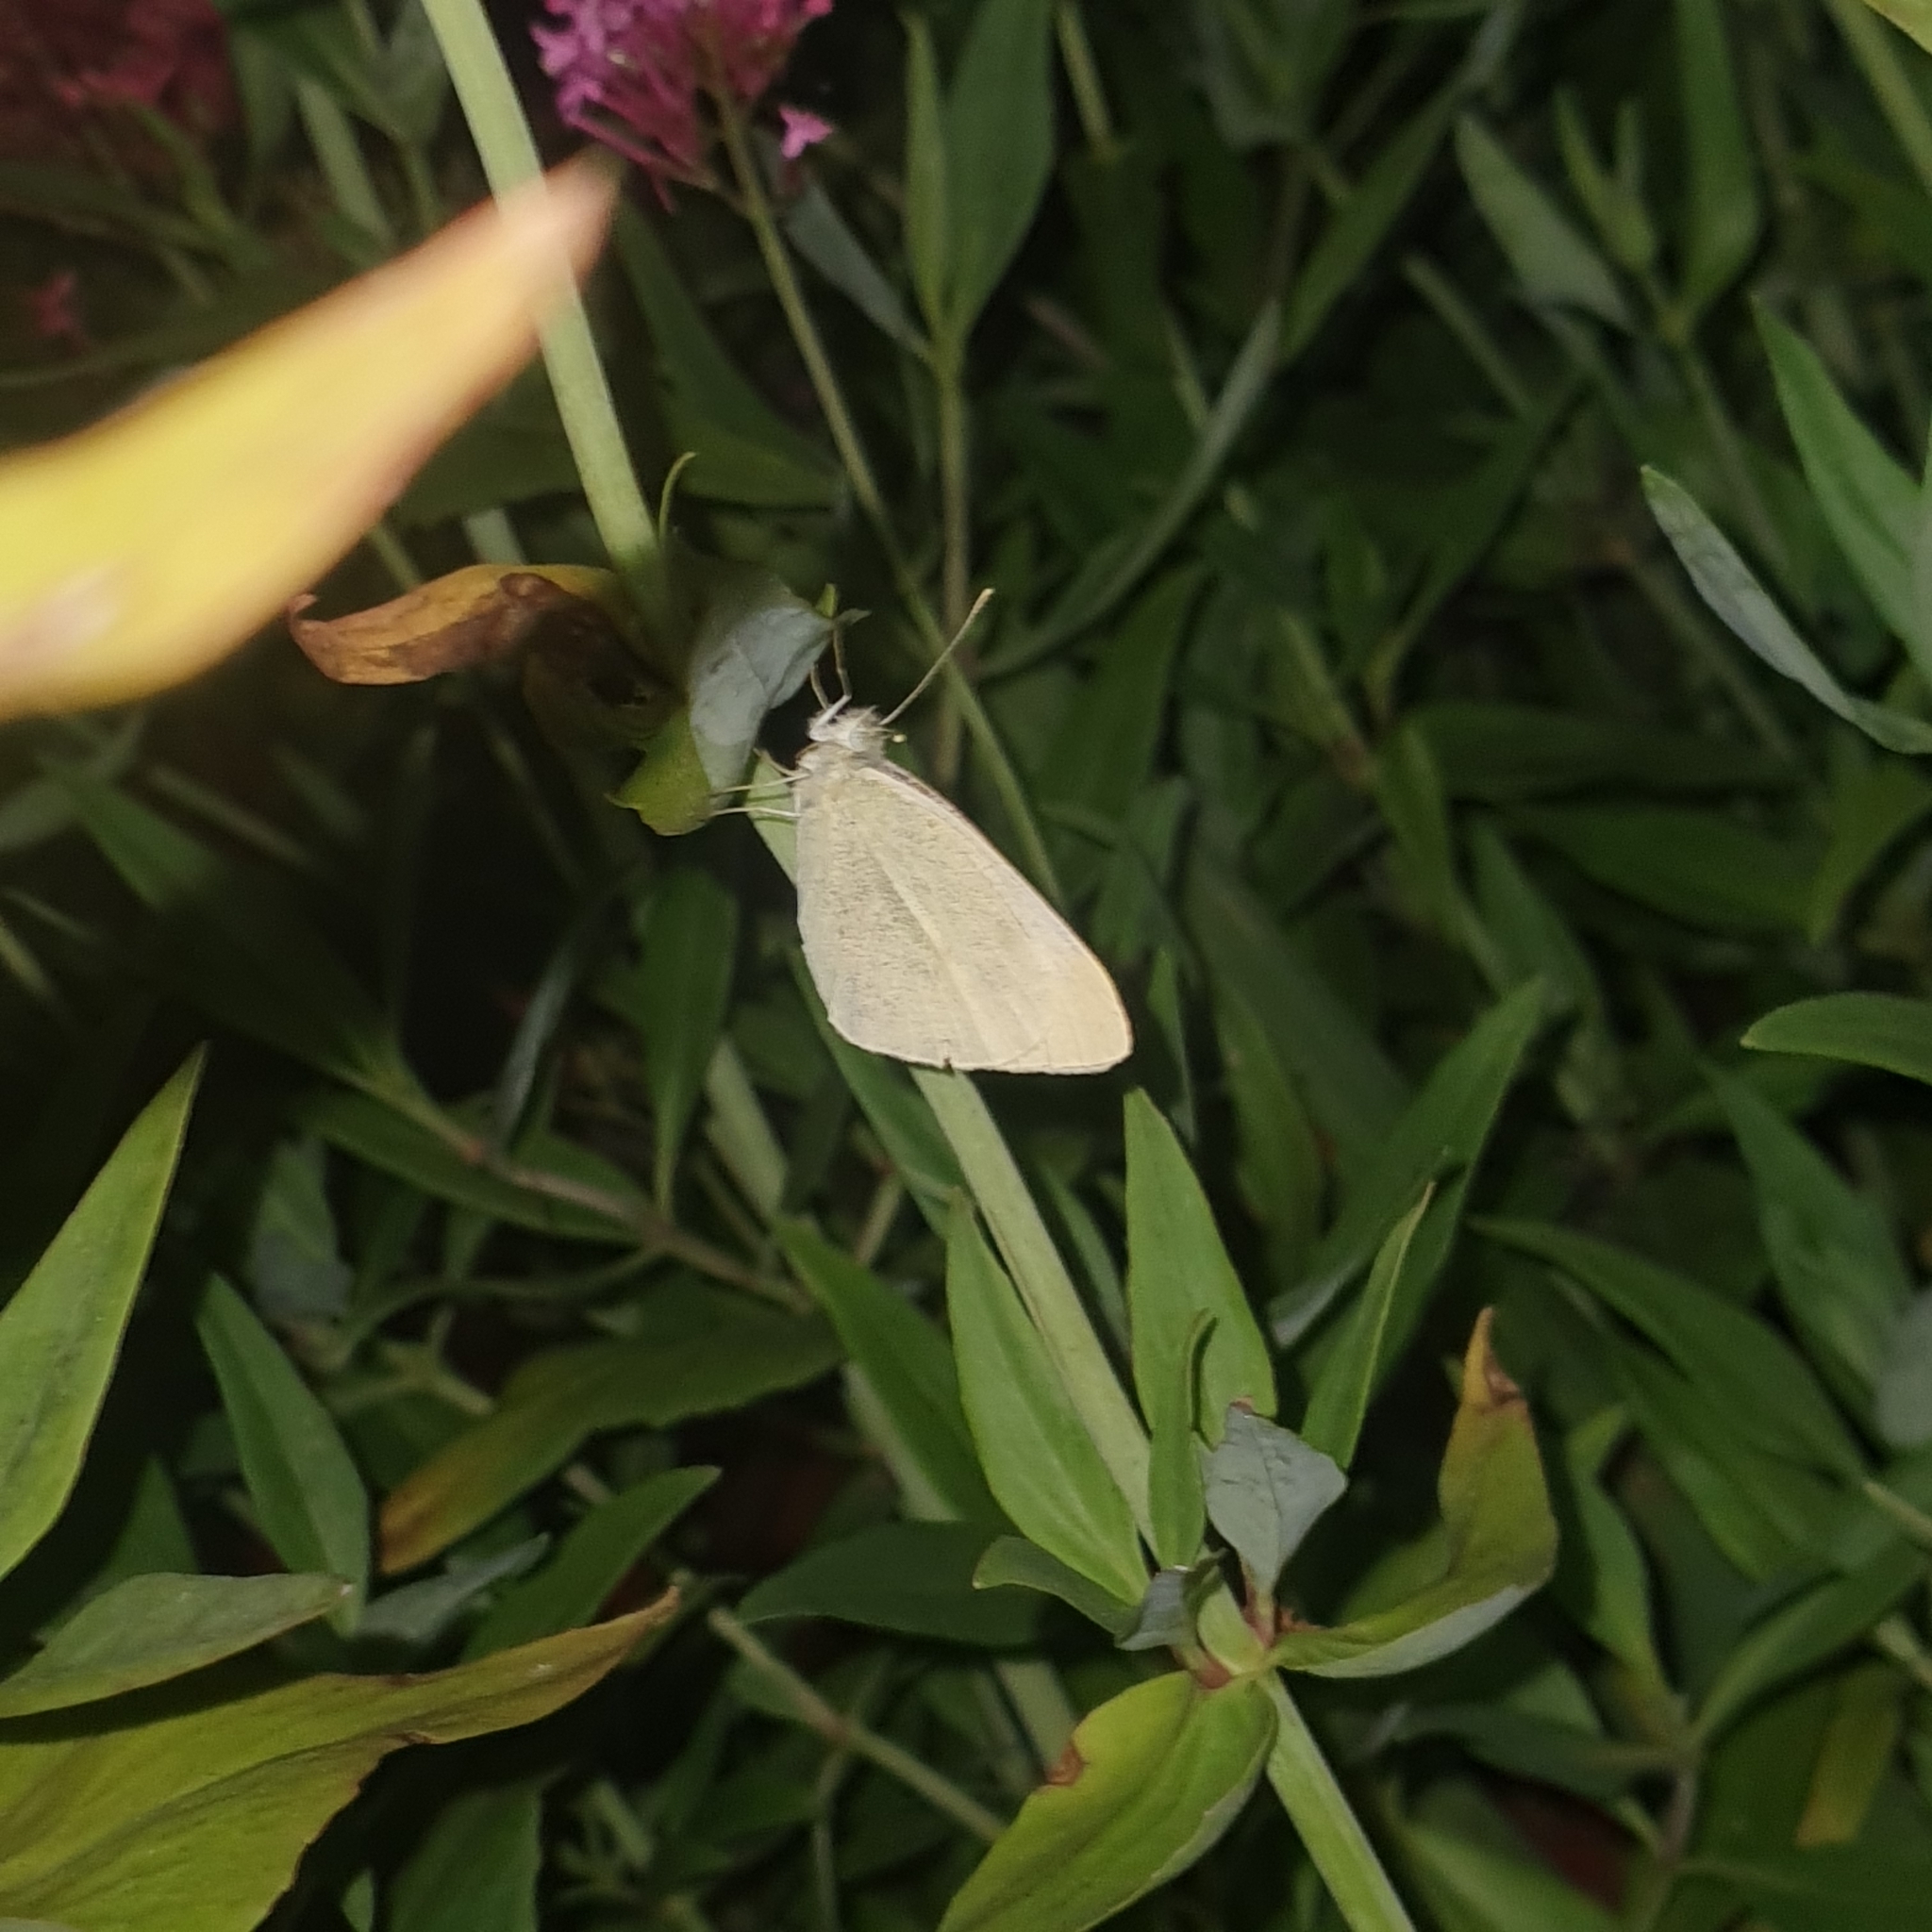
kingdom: Animalia
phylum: Arthropoda
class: Insecta
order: Lepidoptera
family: Pieridae
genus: Pieris
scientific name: Pieris rapae
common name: Small white
